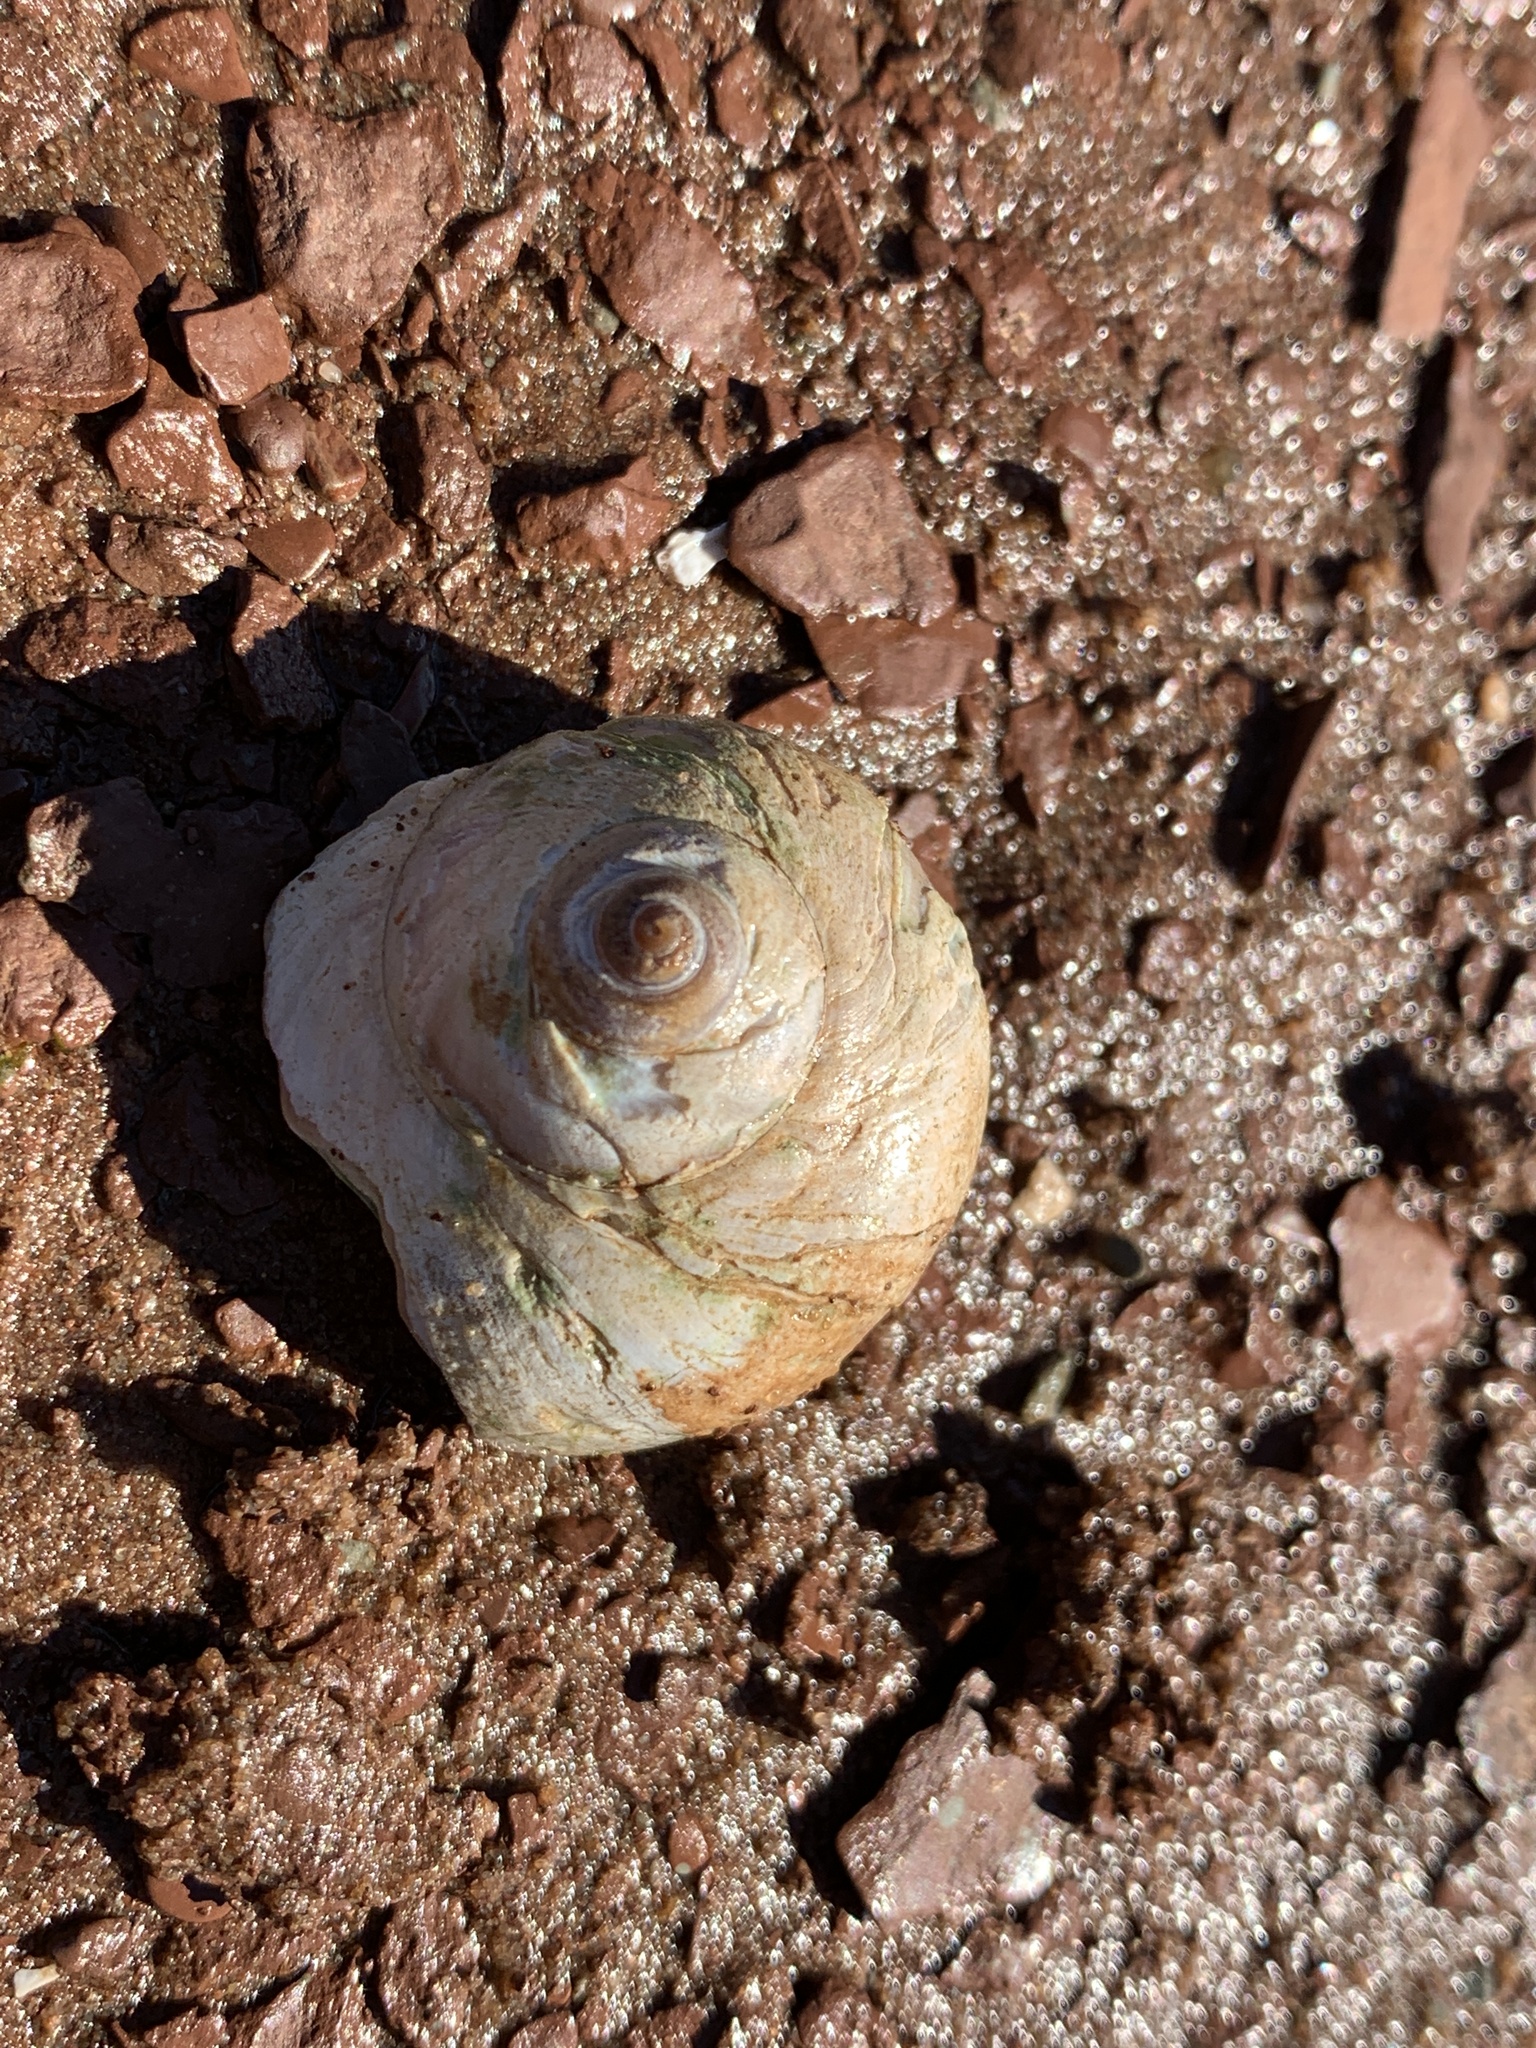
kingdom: Animalia
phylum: Mollusca
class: Gastropoda
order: Littorinimorpha
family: Naticidae
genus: Euspira
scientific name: Euspira heros
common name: Common northern moonsnail
